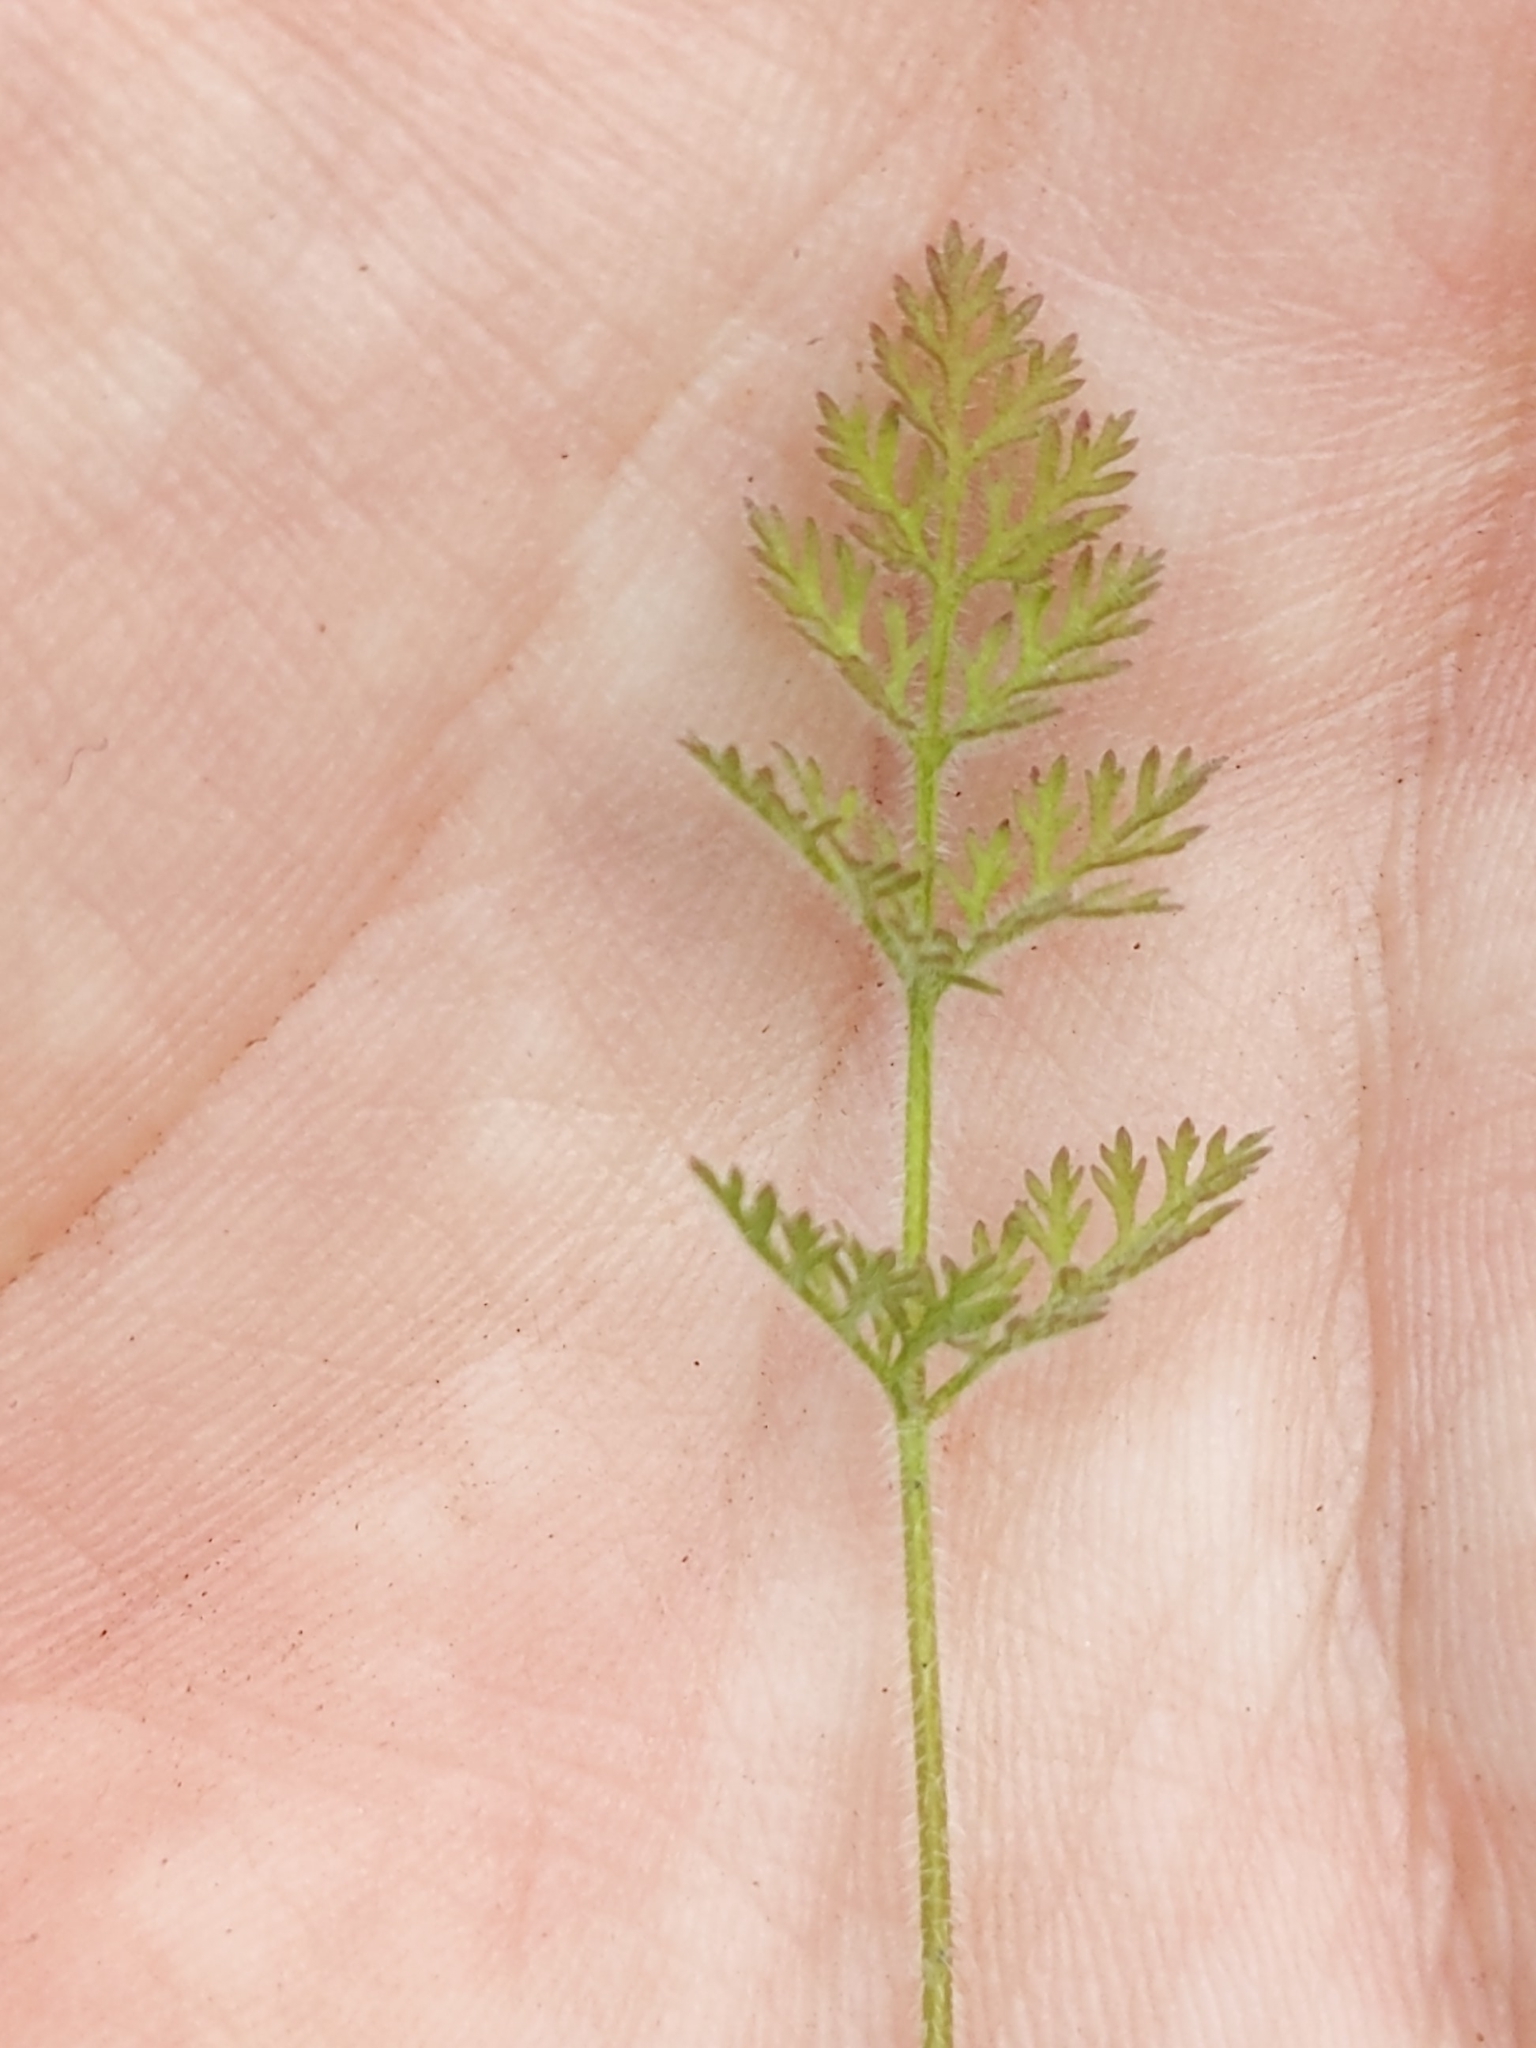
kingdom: Plantae
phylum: Tracheophyta
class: Magnoliopsida
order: Apiales
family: Apiaceae
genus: Daucus
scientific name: Daucus pusillus
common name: Southwest wild carrot
